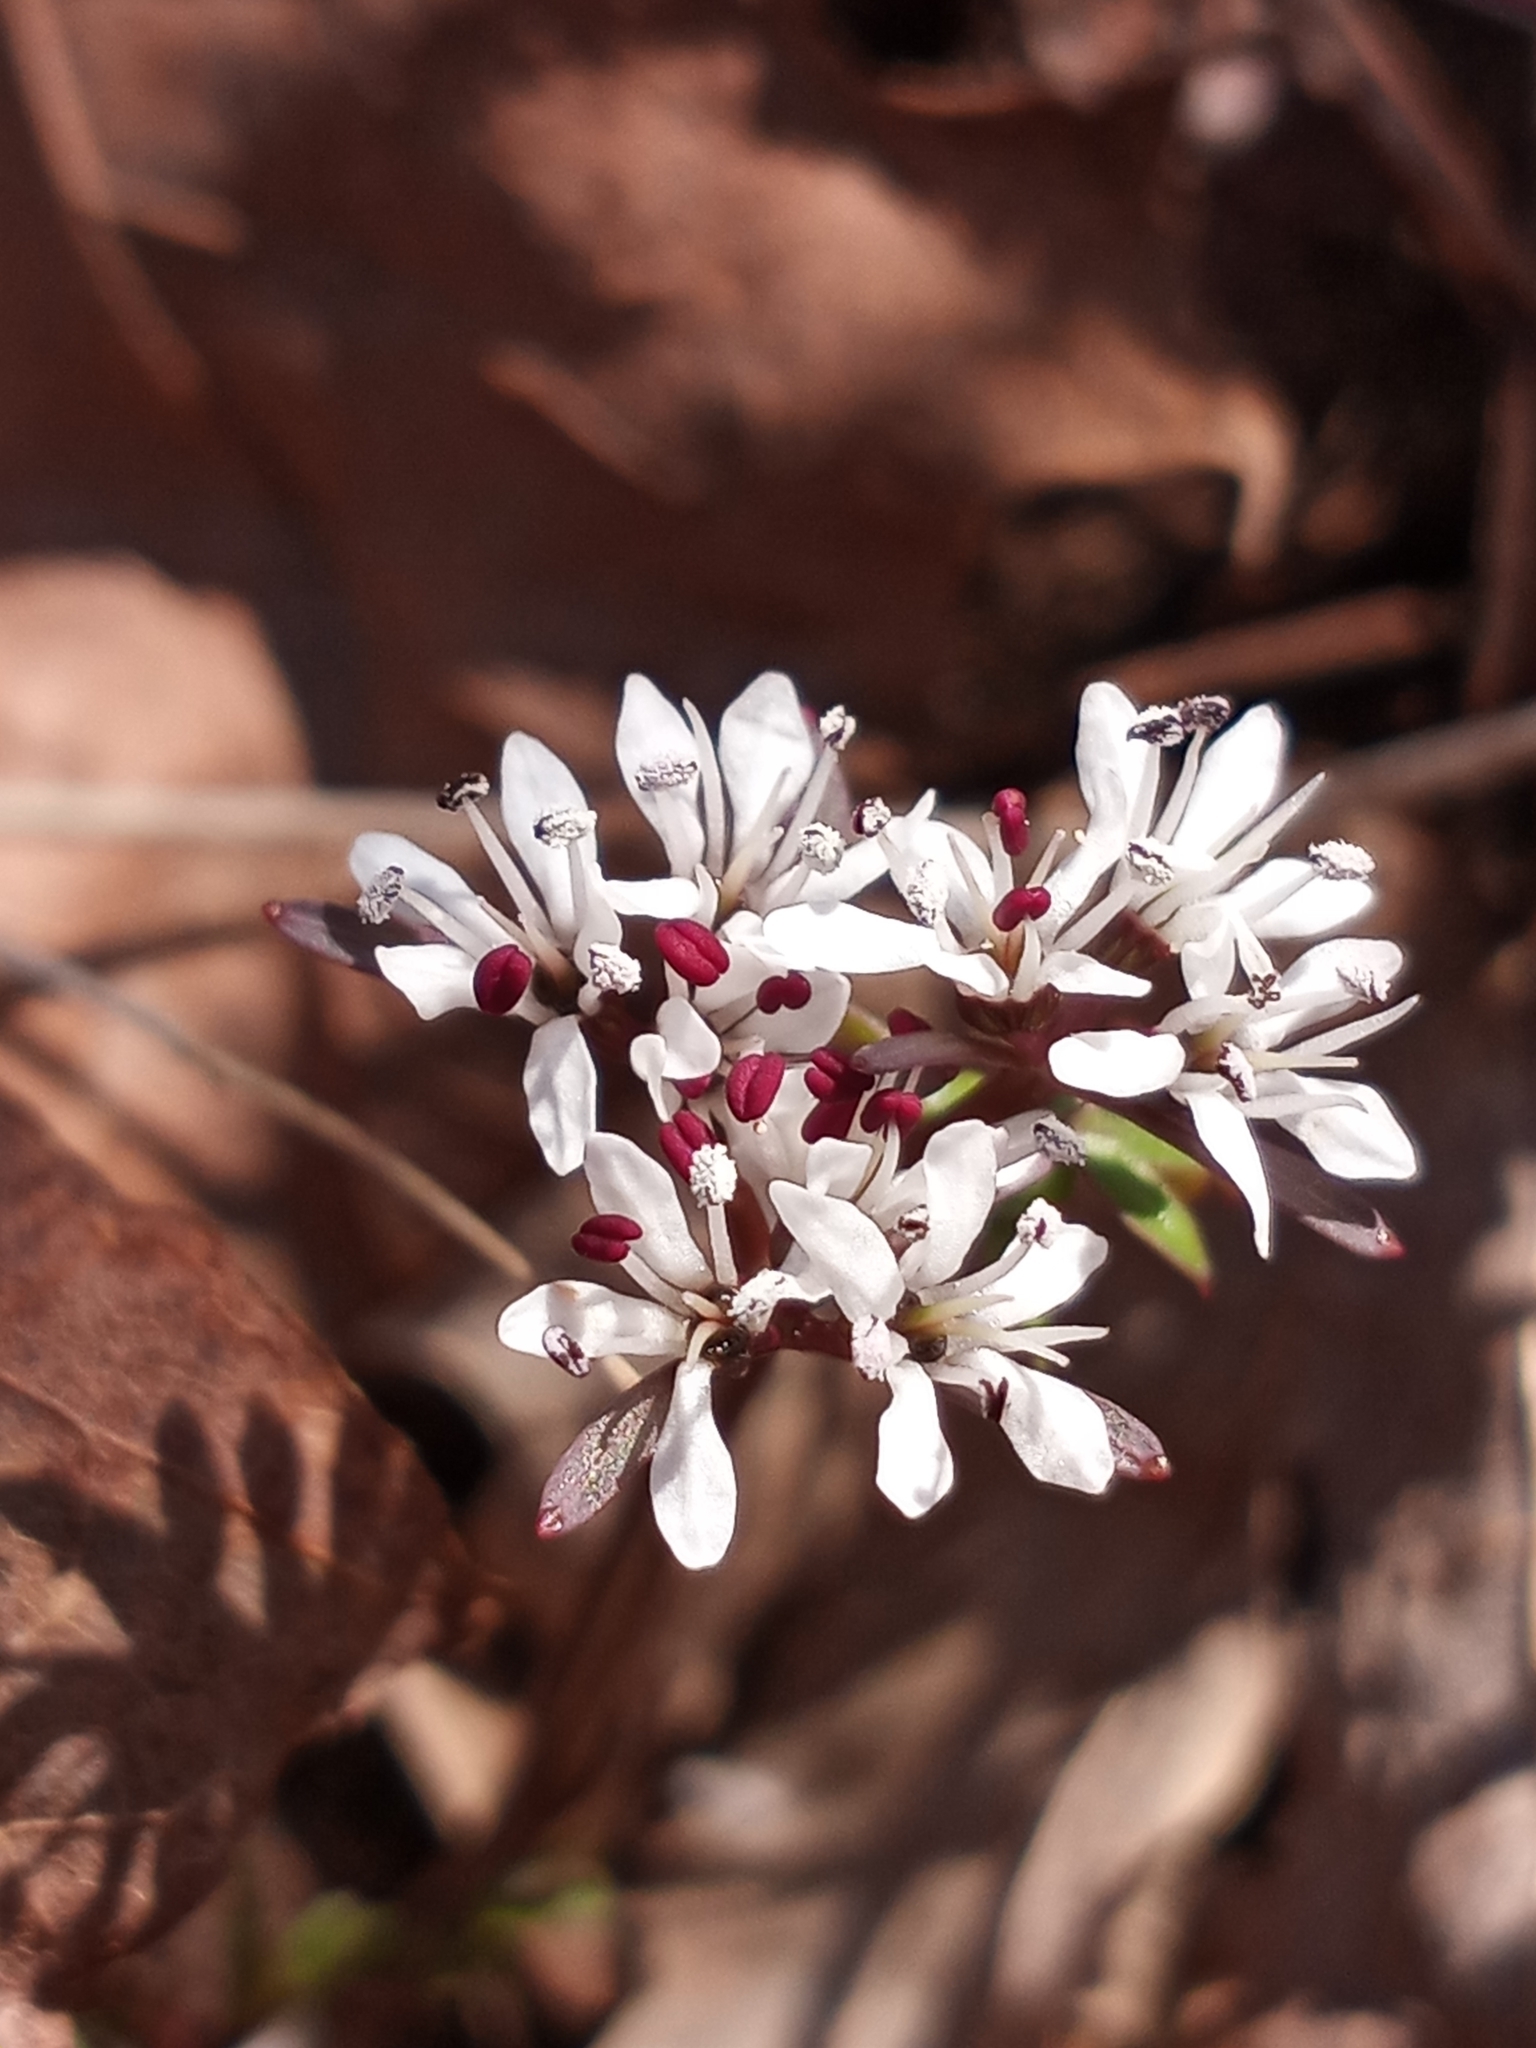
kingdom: Plantae
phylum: Tracheophyta
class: Magnoliopsida
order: Apiales
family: Apiaceae
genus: Erigenia
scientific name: Erigenia bulbosa
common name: Pepper-and-salt
